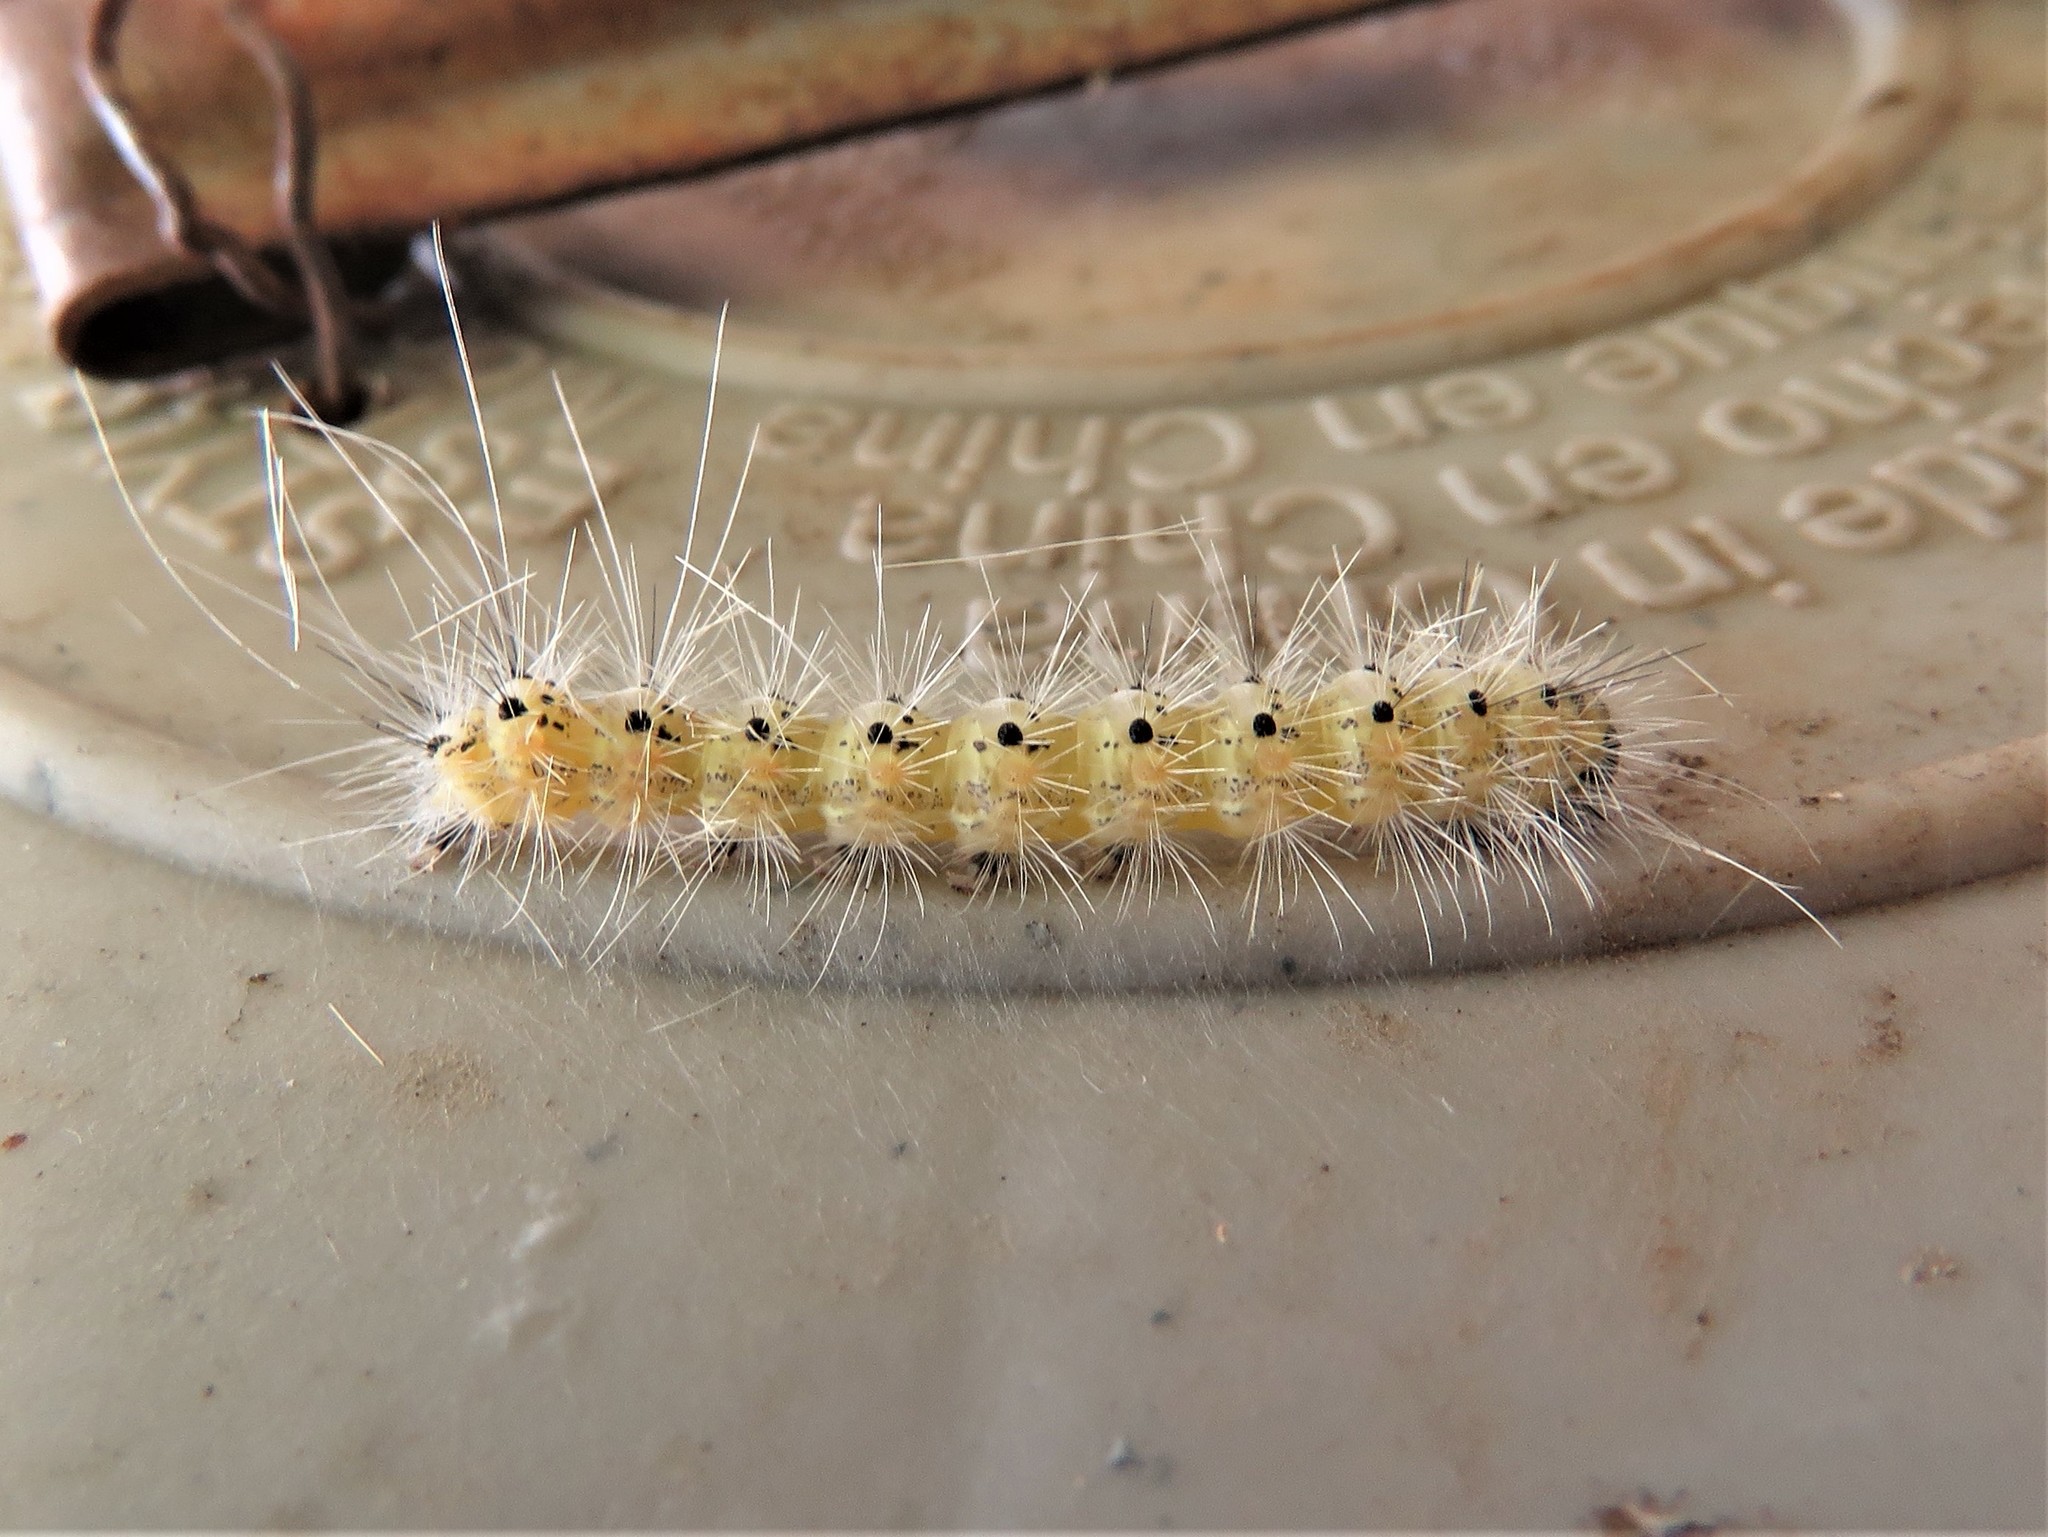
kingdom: Animalia
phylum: Arthropoda
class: Insecta
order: Lepidoptera
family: Erebidae
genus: Hyphantria
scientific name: Hyphantria cunea
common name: American white moth
